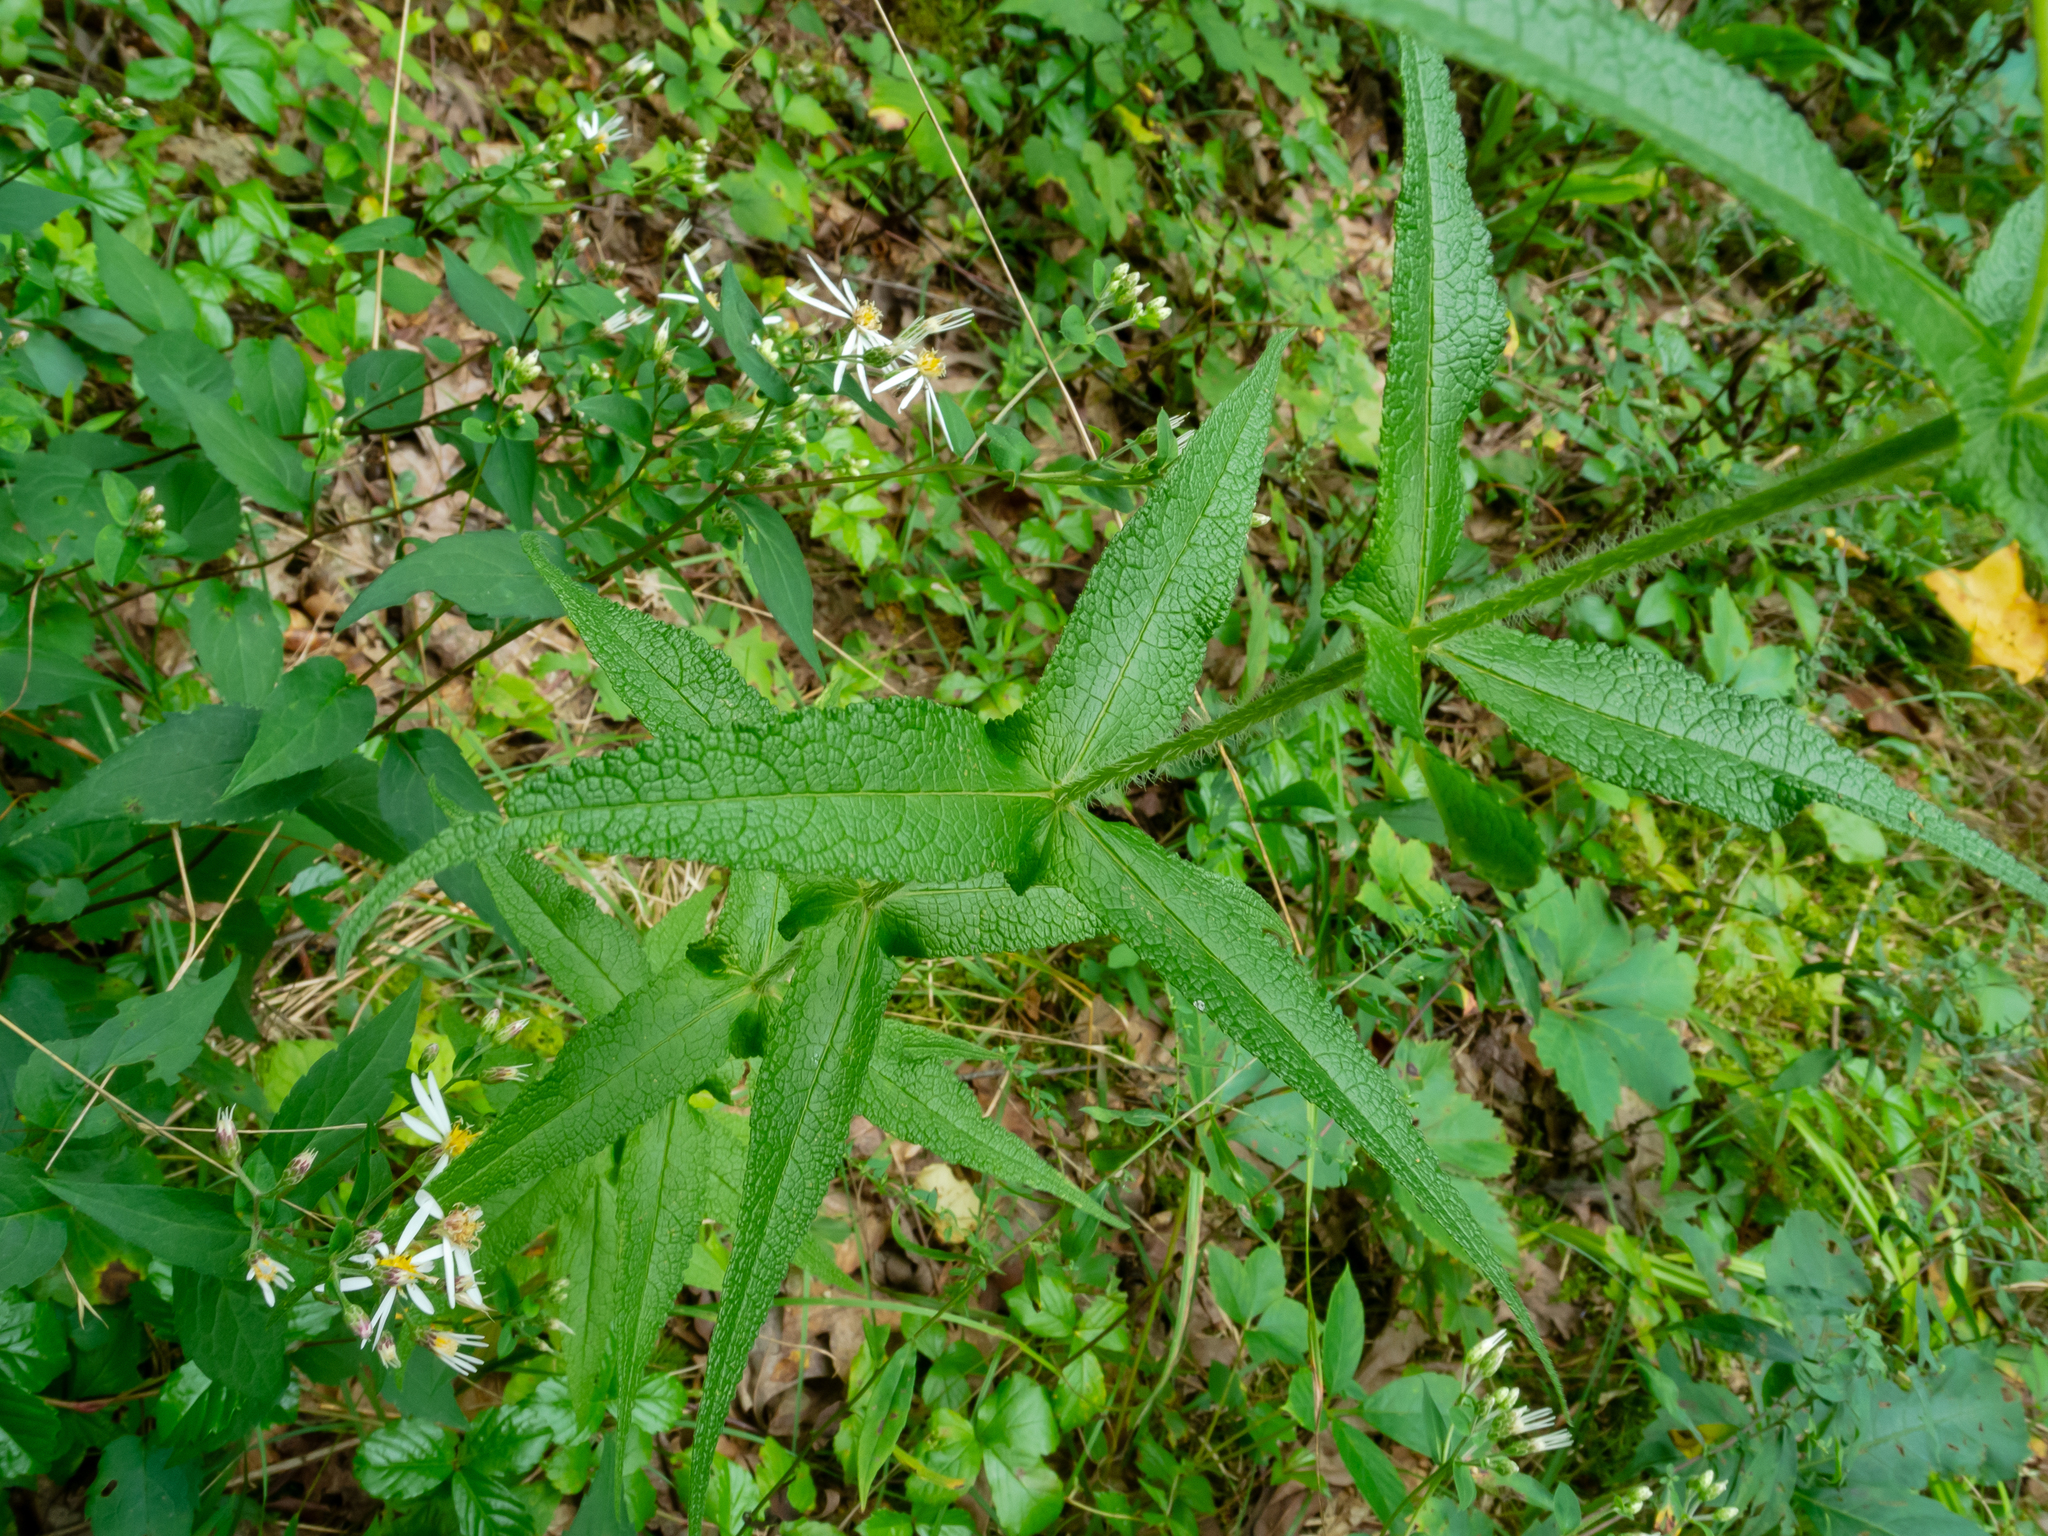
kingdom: Plantae
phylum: Tracheophyta
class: Magnoliopsida
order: Asterales
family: Asteraceae
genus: Eupatorium
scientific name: Eupatorium perfoliatum
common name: Boneset
